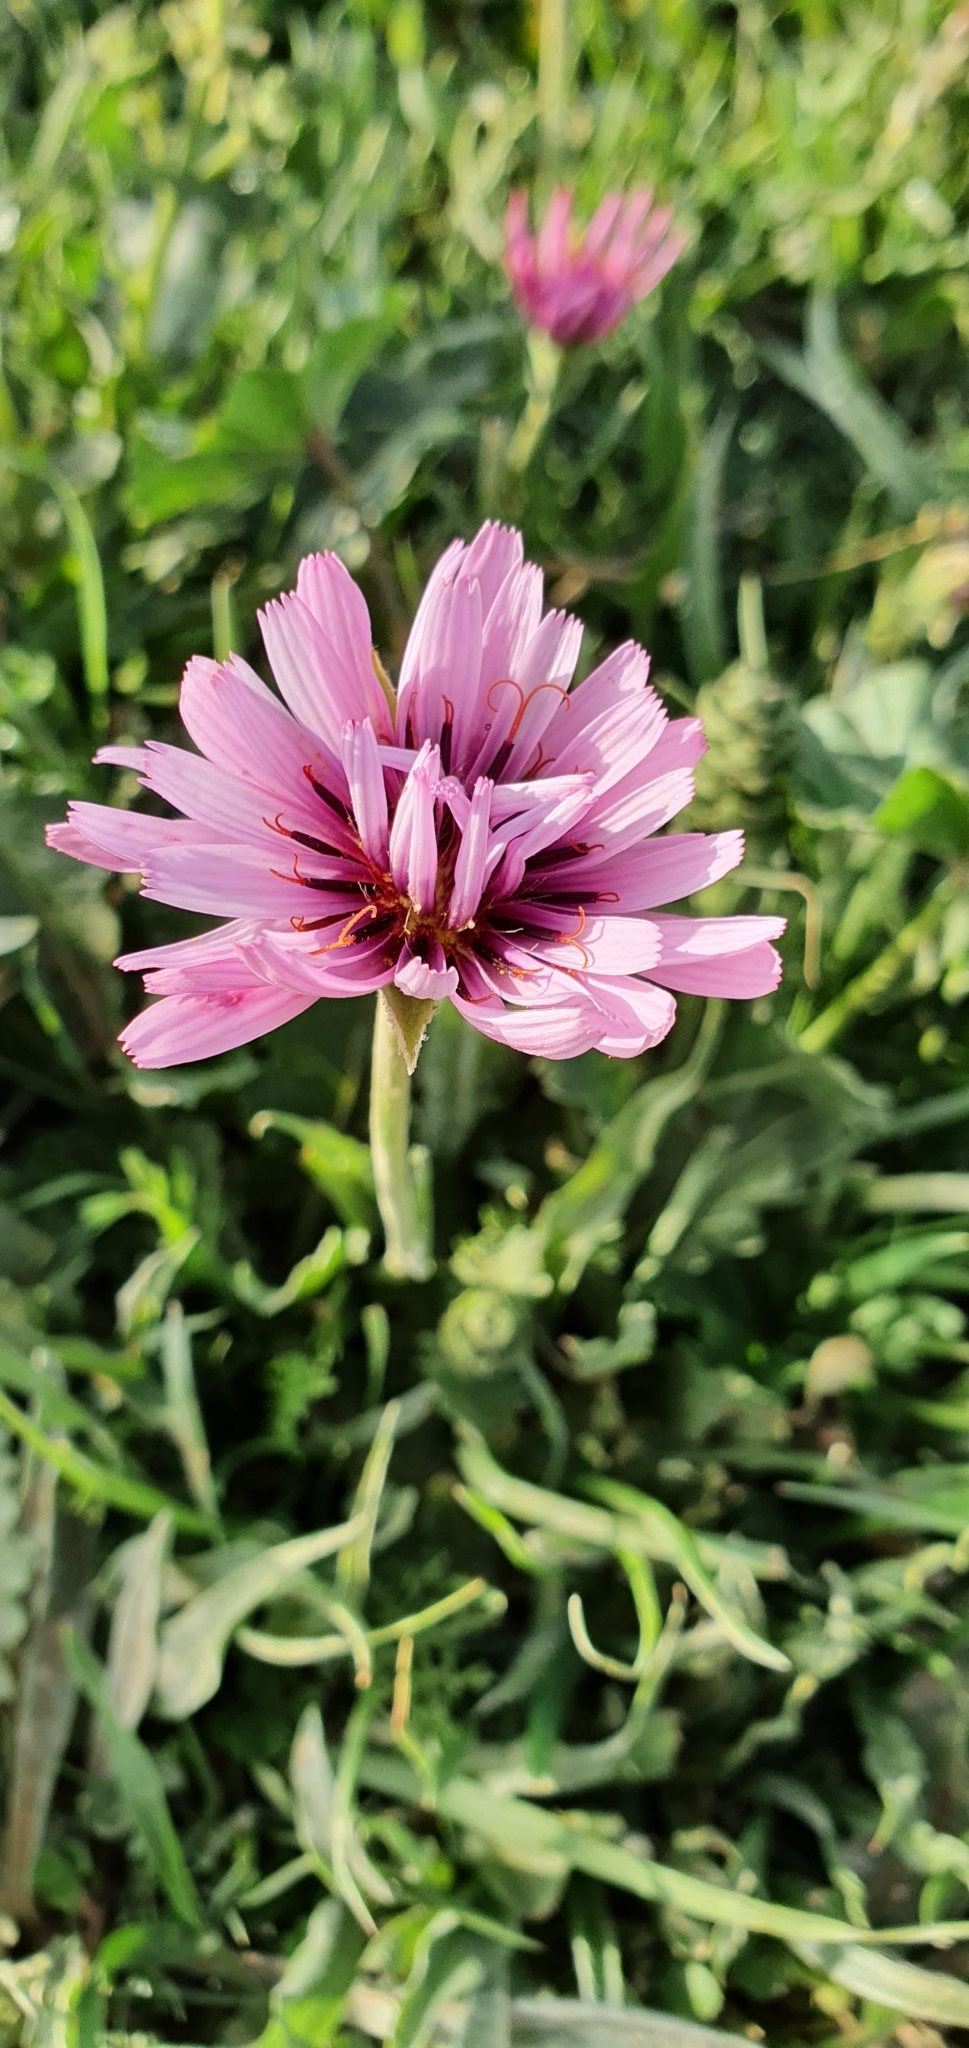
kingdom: Plantae
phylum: Tracheophyta
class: Magnoliopsida
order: Asterales
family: Asteraceae
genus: Pseudopodospermum
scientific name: Pseudopodospermum undulatum
